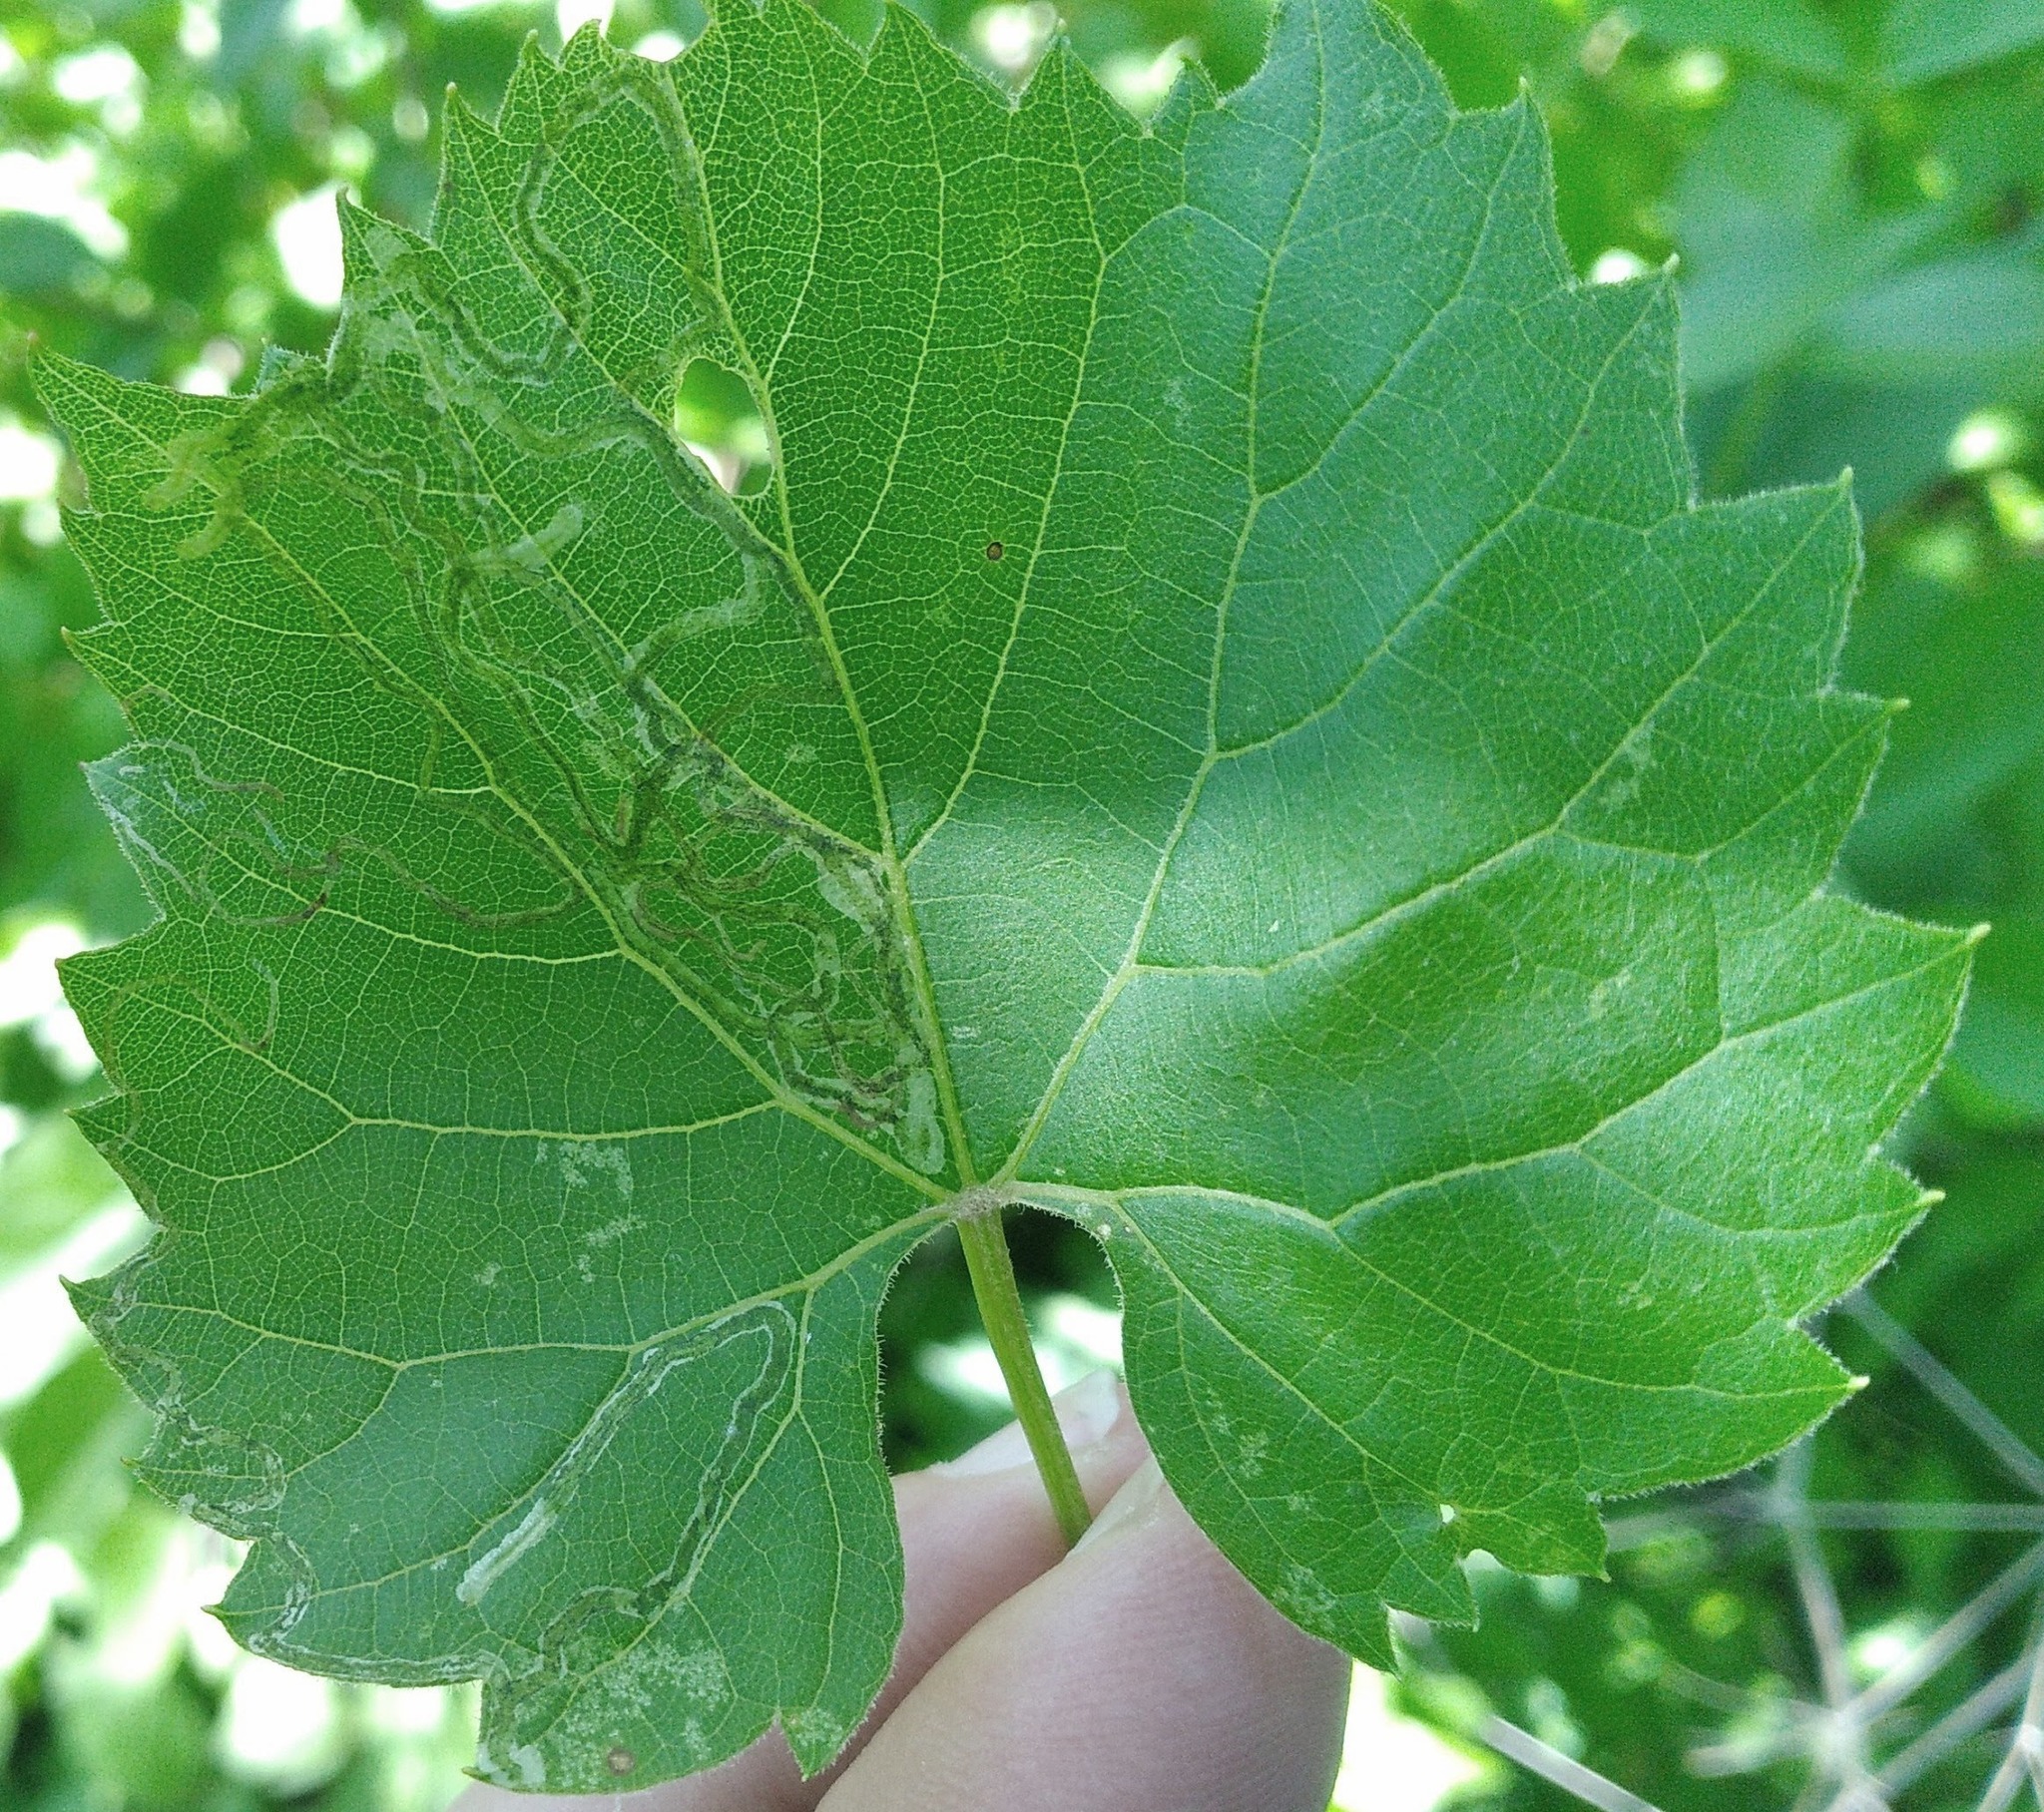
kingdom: Animalia
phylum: Arthropoda
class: Insecta
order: Lepidoptera
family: Gracillariidae
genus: Phyllocnistis
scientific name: Phyllocnistis vitifoliella
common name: Grape leaf-miner moth
